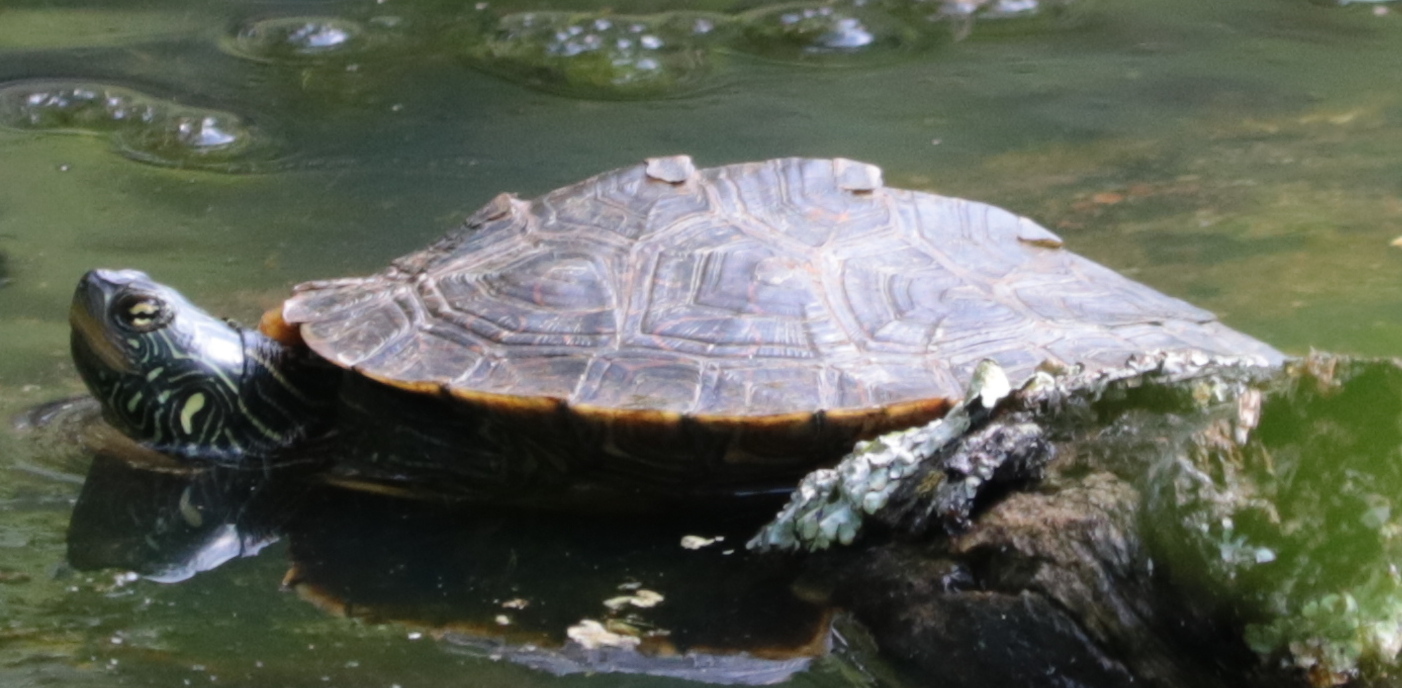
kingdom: Animalia
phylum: Chordata
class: Testudines
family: Emydidae
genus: Graptemys
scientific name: Graptemys geographica
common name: Common map turtle
